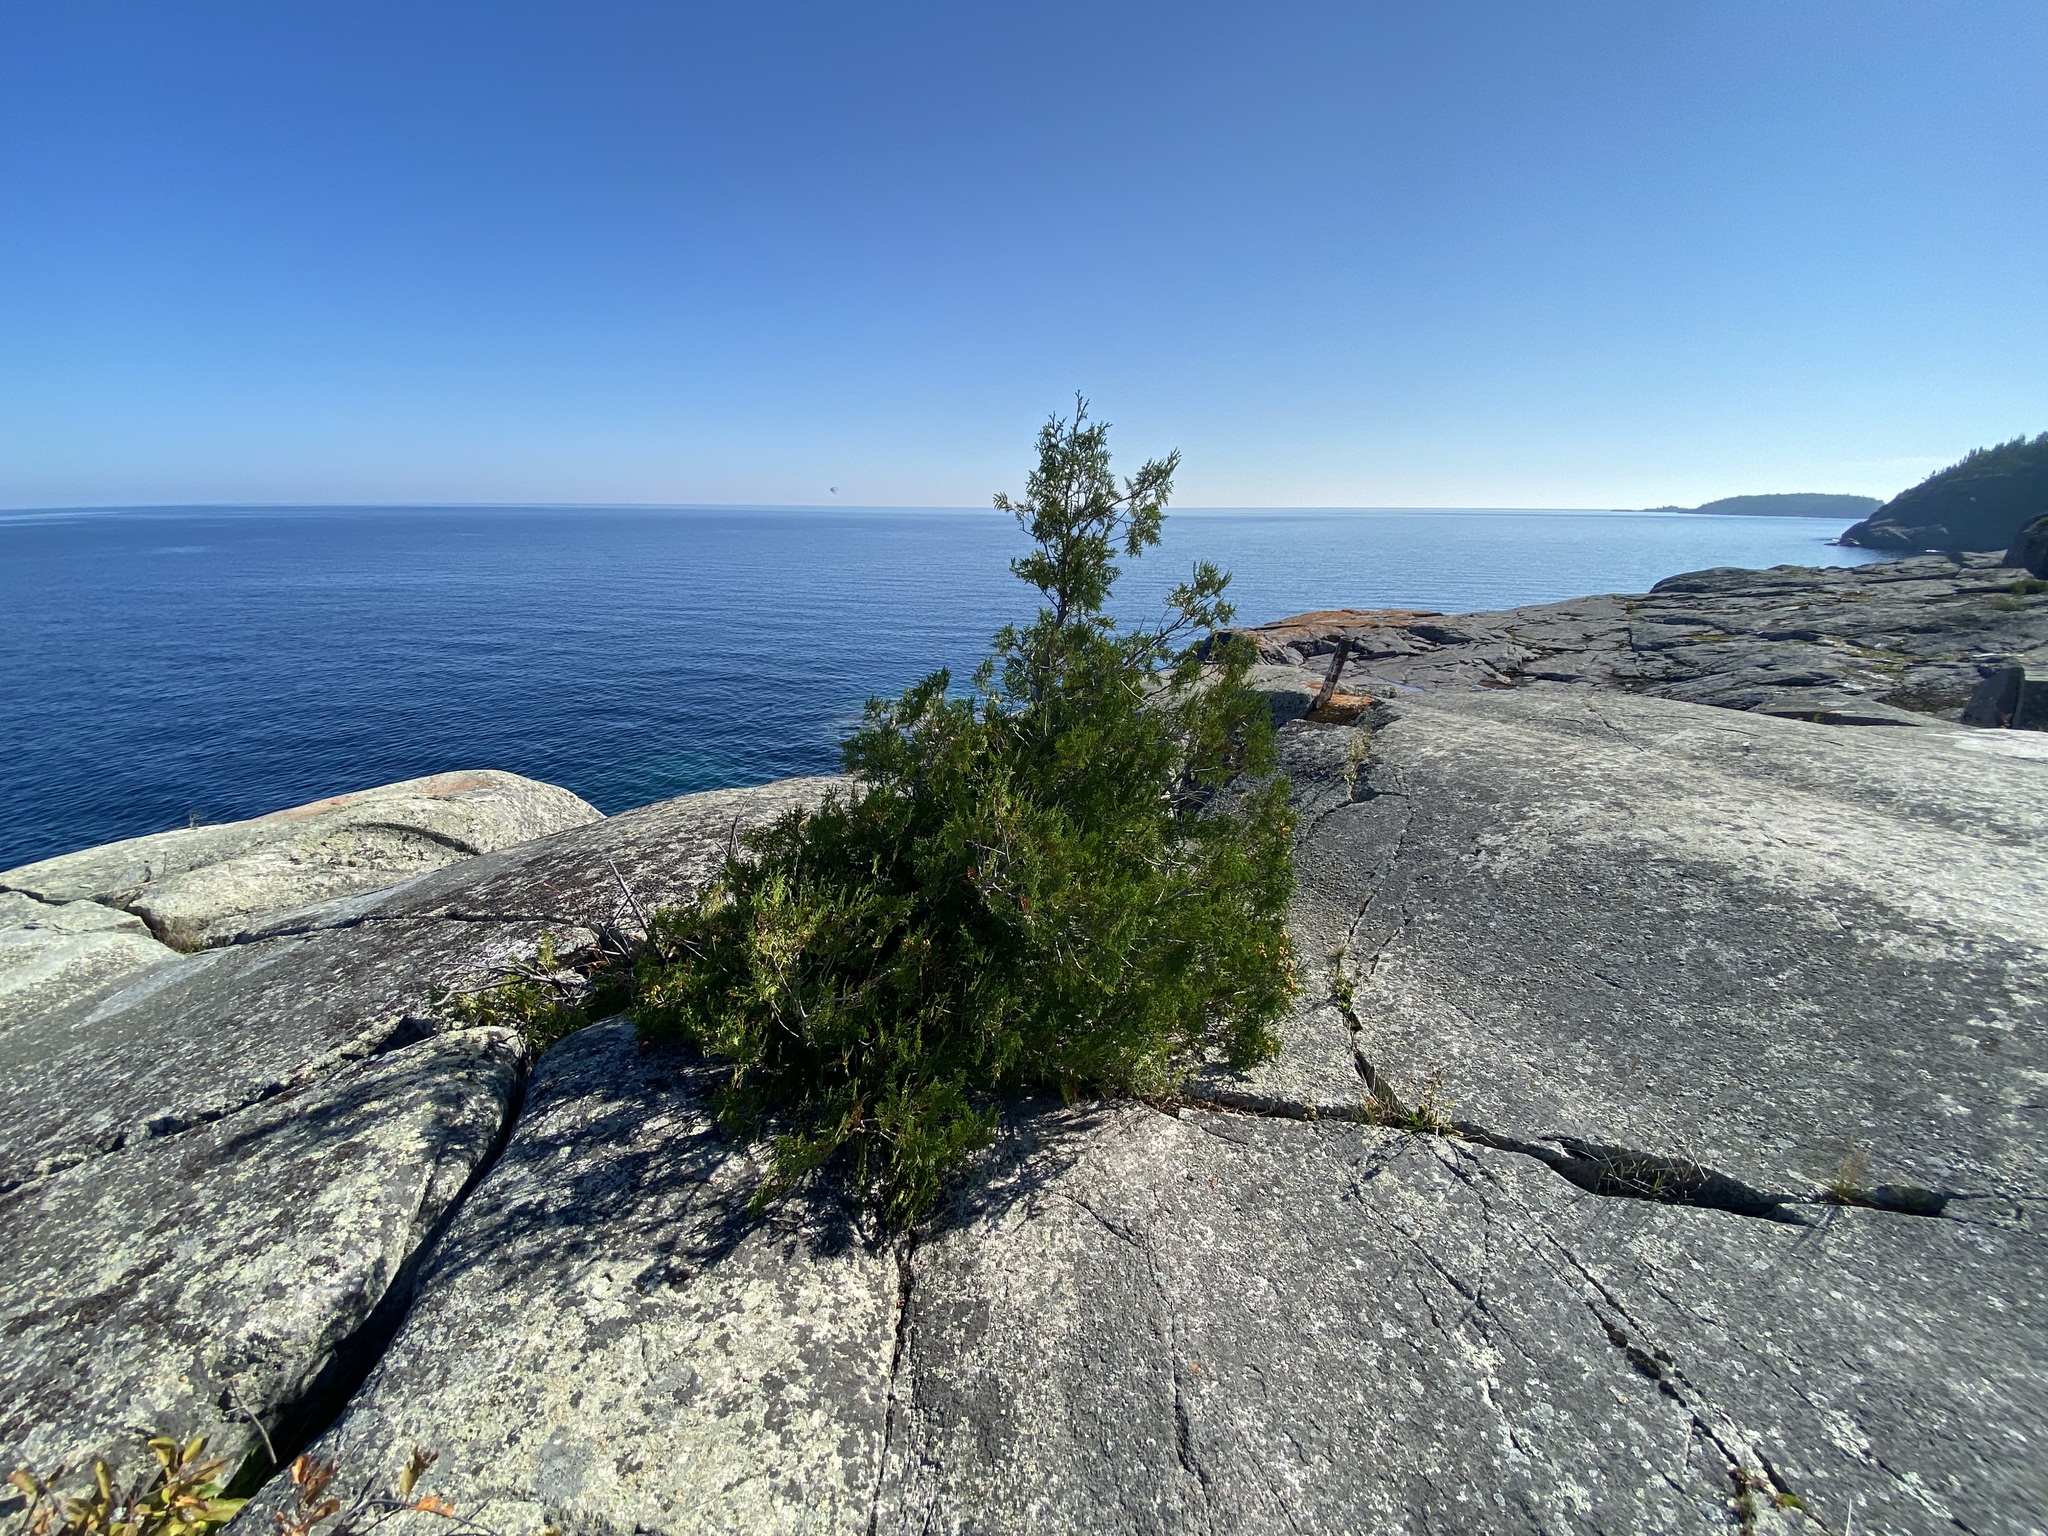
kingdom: Plantae
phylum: Tracheophyta
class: Pinopsida
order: Pinales
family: Cupressaceae
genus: Thuja
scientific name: Thuja occidentalis
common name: Northern white-cedar
